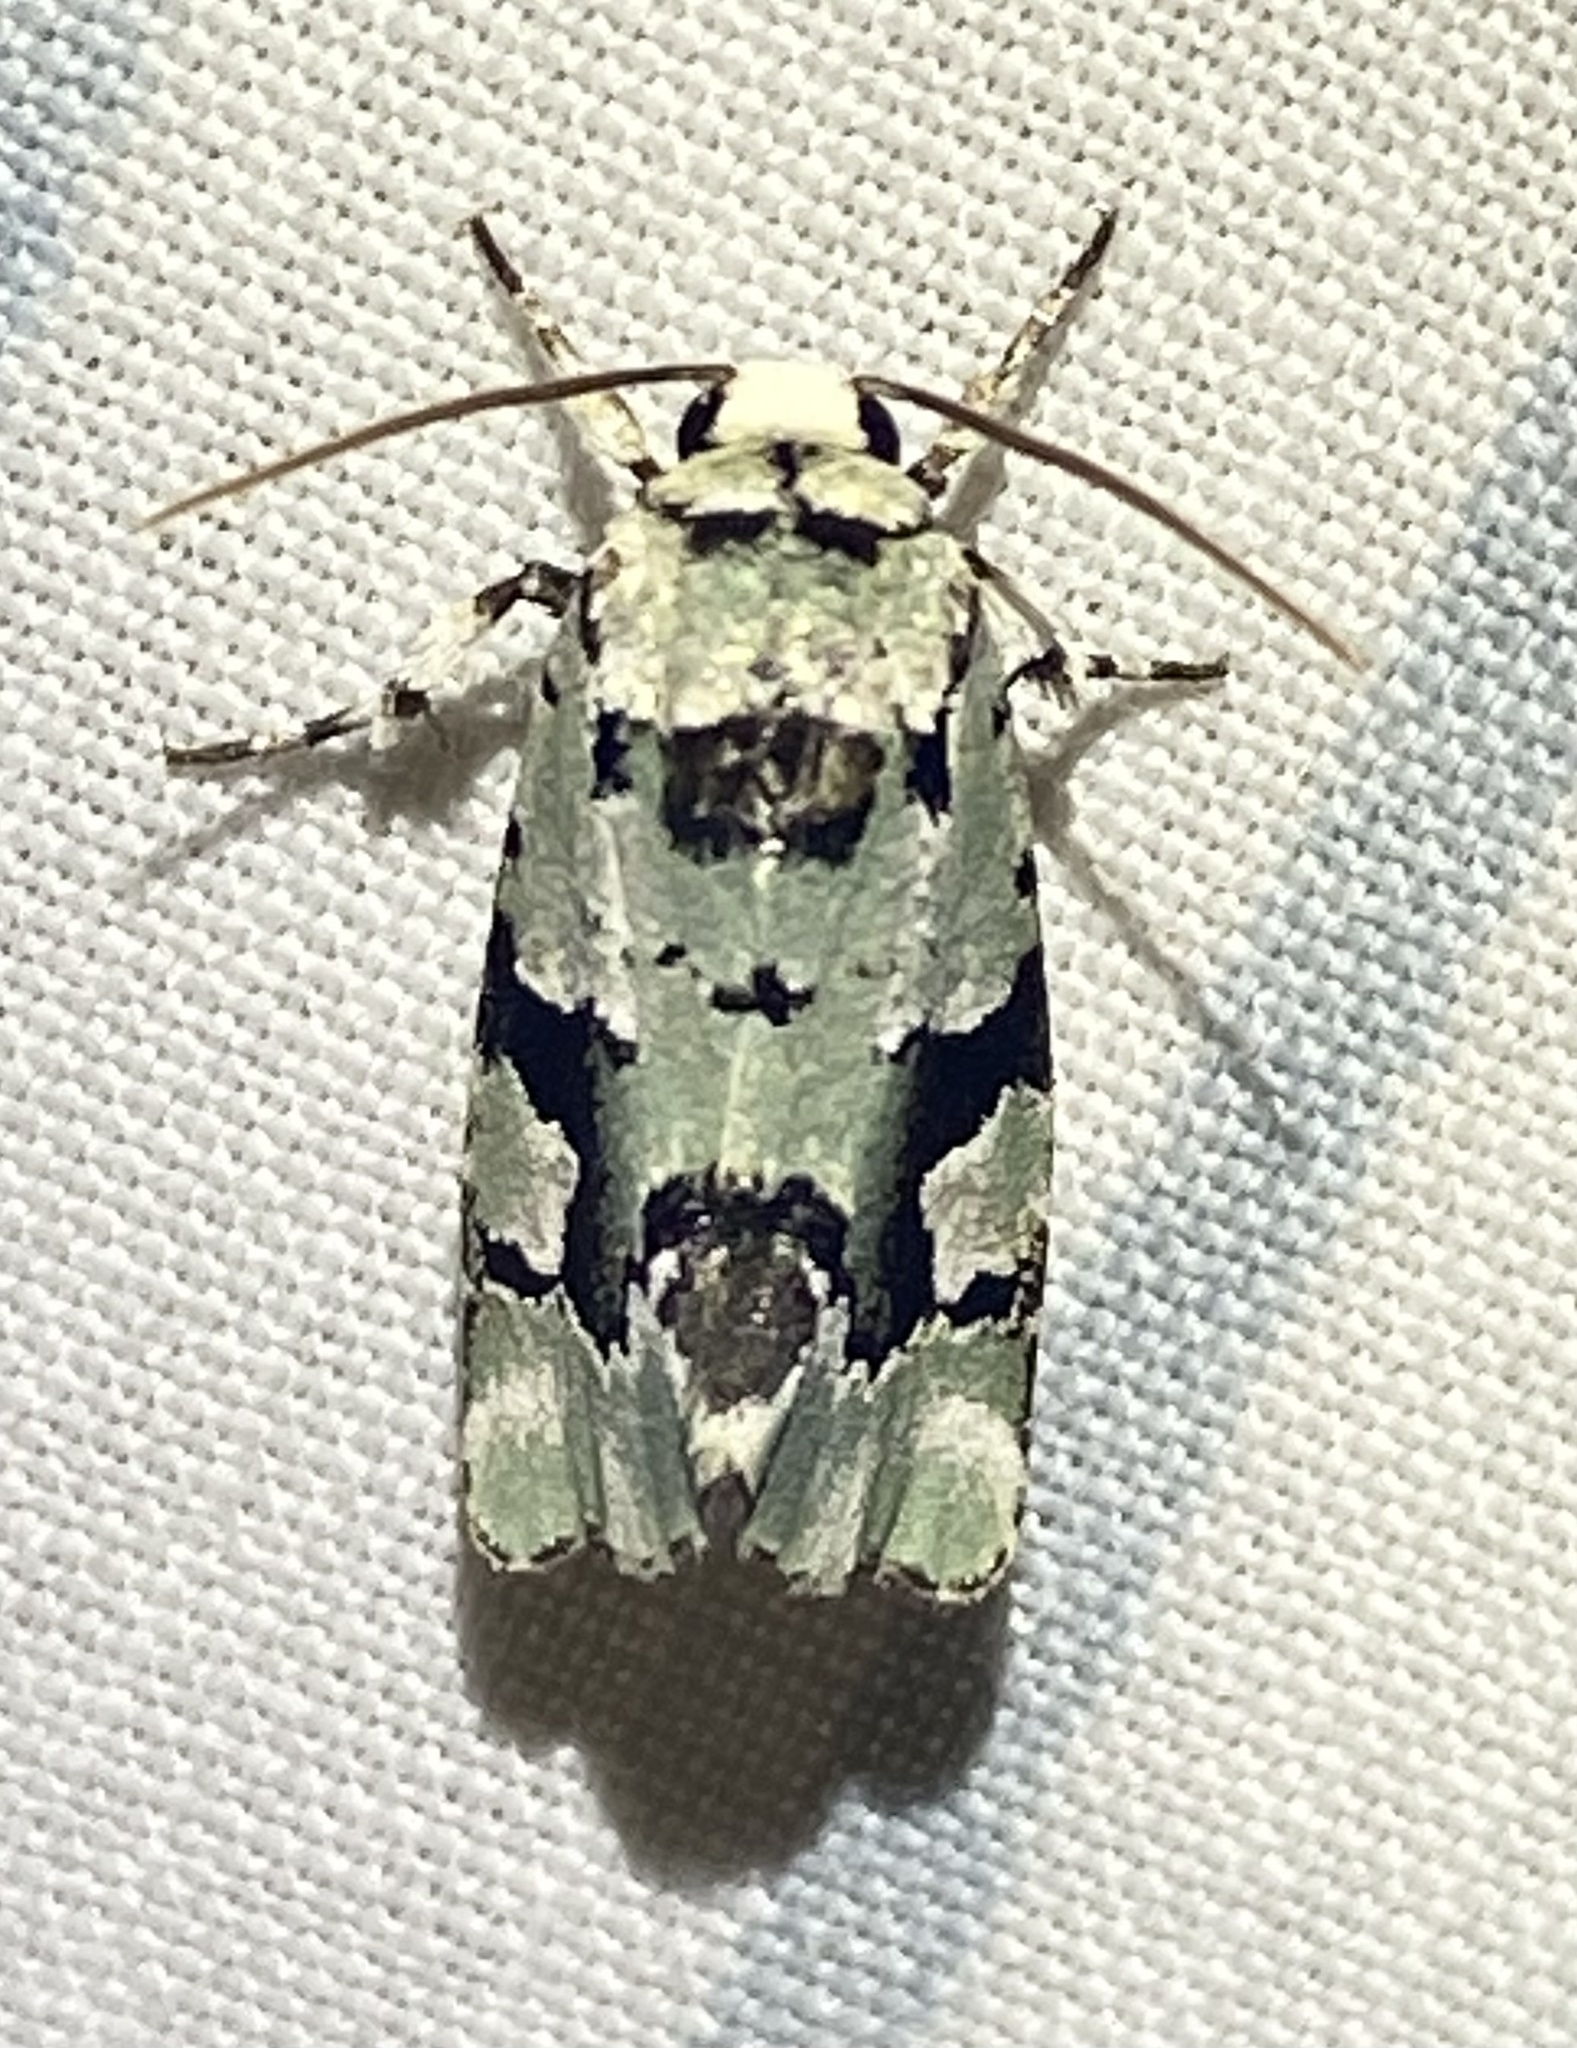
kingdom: Animalia
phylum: Arthropoda
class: Insecta
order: Lepidoptera
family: Noctuidae
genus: Emarginea
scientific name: Emarginea percara
